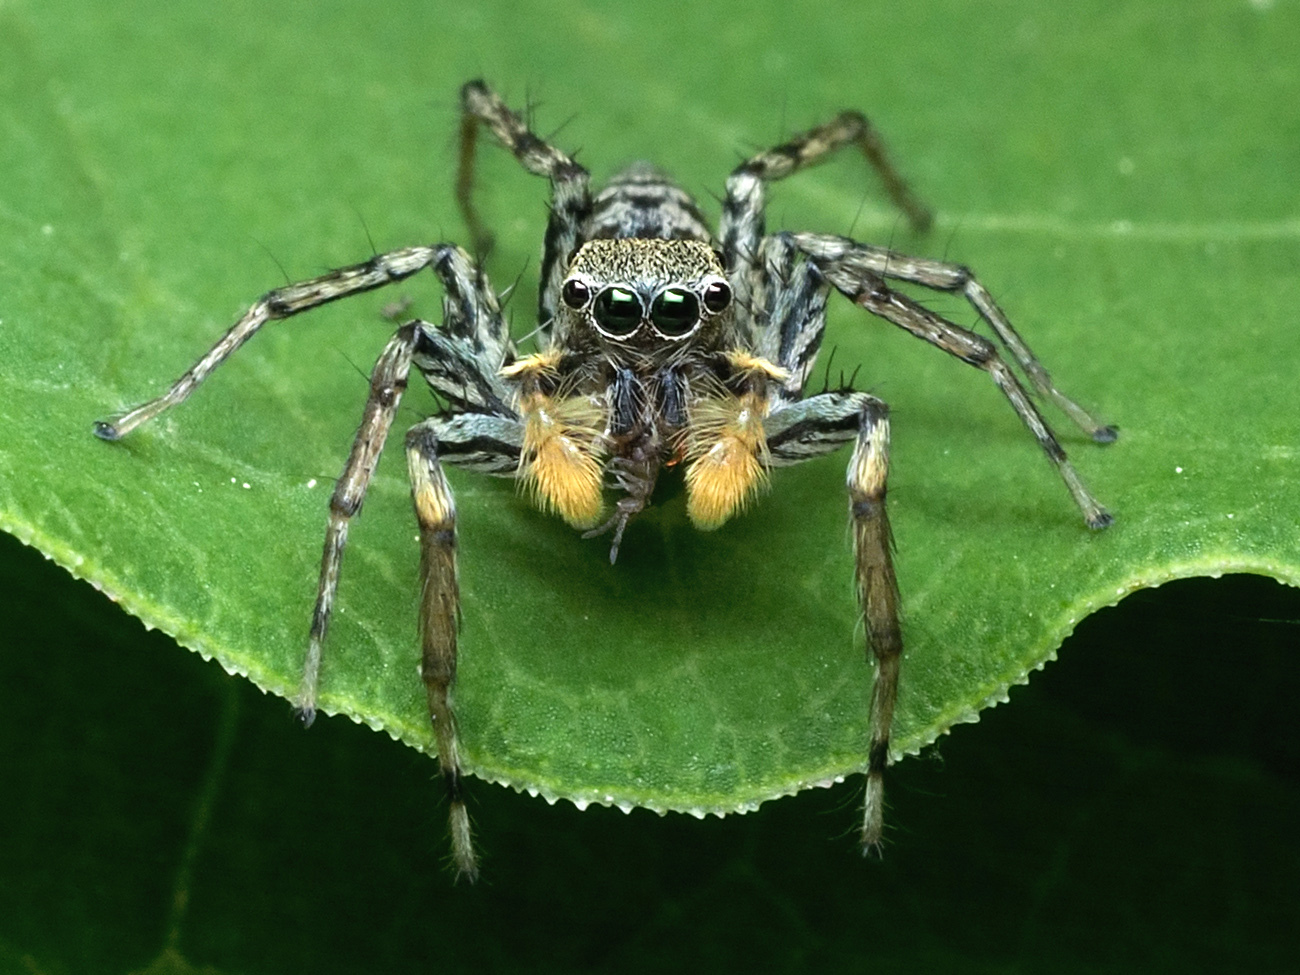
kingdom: Animalia
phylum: Arthropoda
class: Arachnida
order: Araneae
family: Salticidae
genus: Maevia
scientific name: Maevia inclemens
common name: Dimorphic jumper
